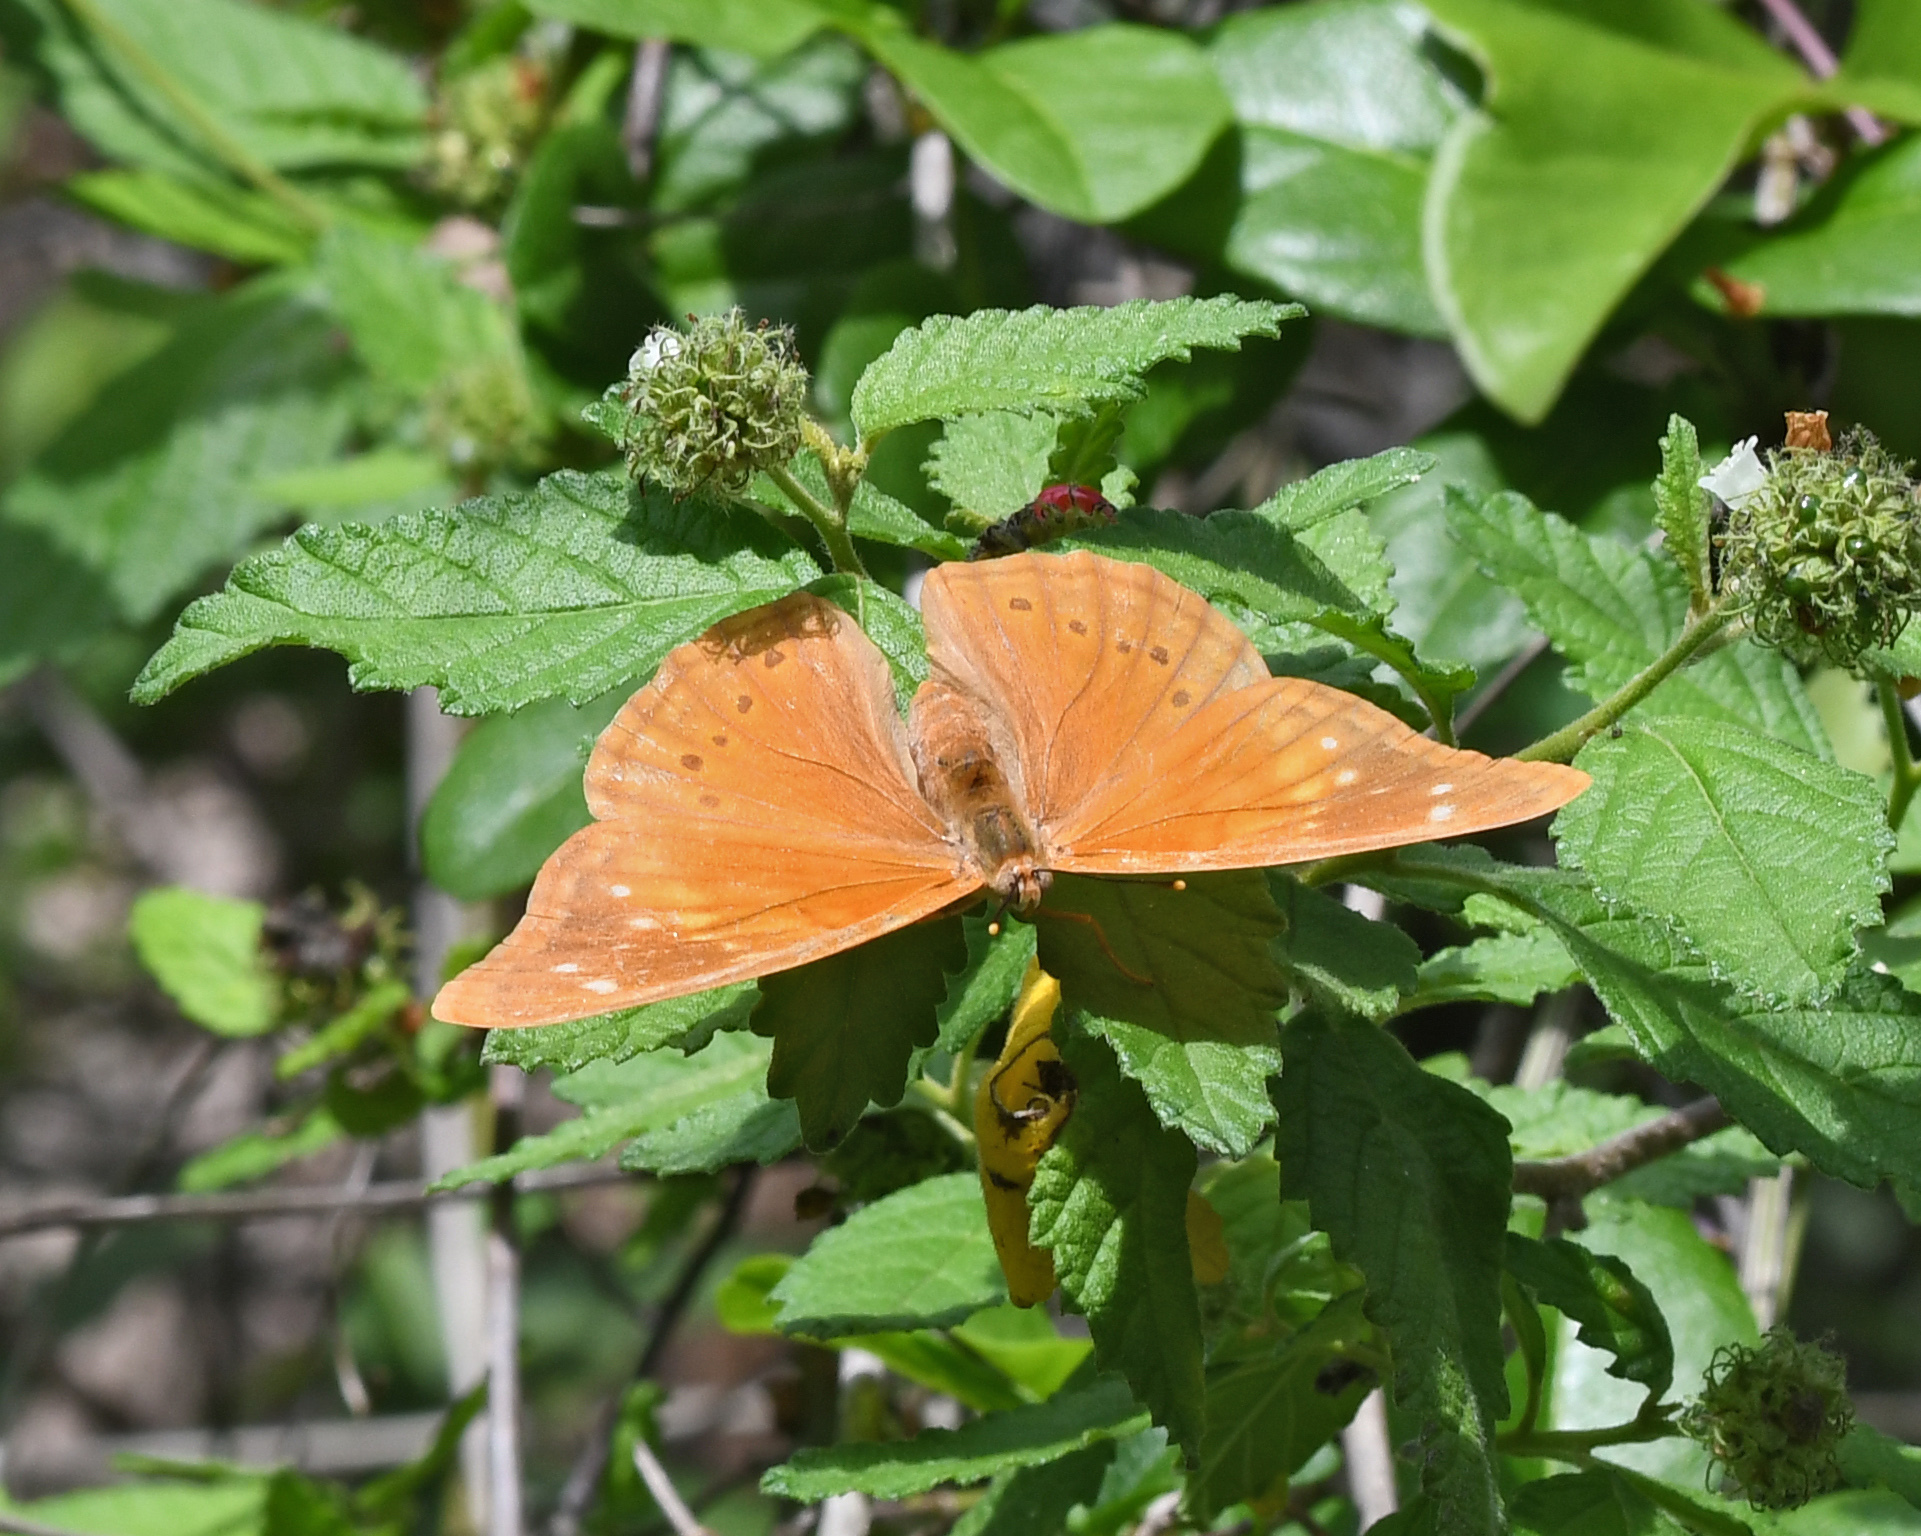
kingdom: Animalia
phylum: Arthropoda
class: Insecta
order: Lepidoptera
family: Nymphalidae
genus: Asterocampa
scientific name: Asterocampa idyja
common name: Dusky emperor
